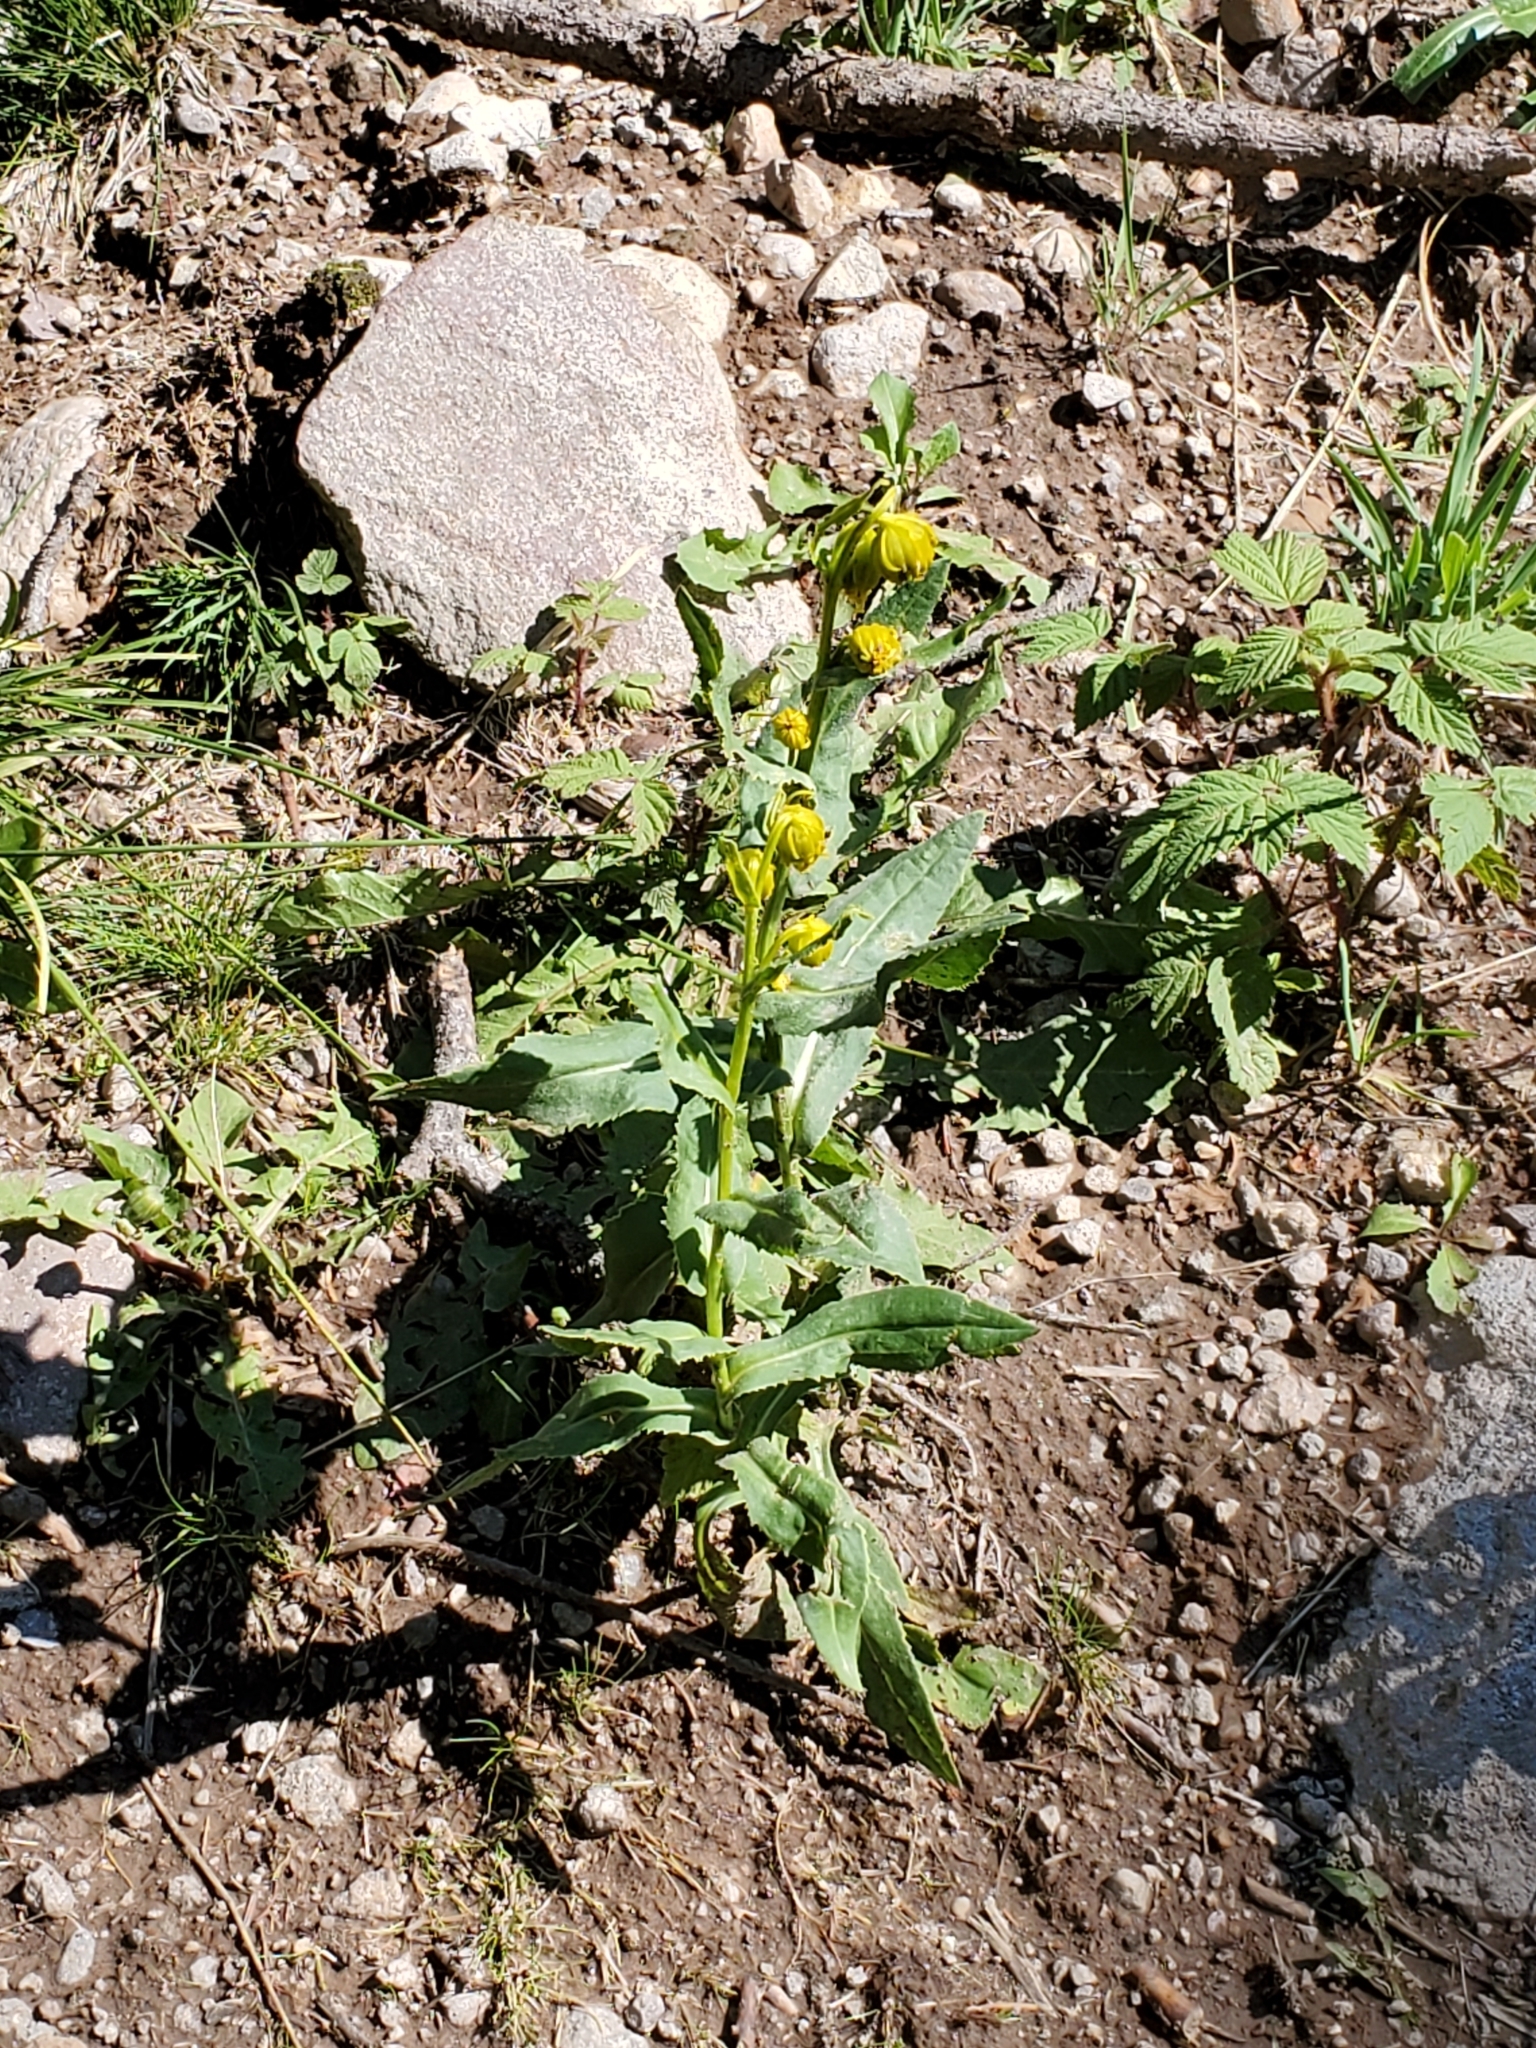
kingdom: Plantae
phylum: Tracheophyta
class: Magnoliopsida
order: Asterales
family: Asteraceae
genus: Senecio
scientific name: Senecio bigelovii
